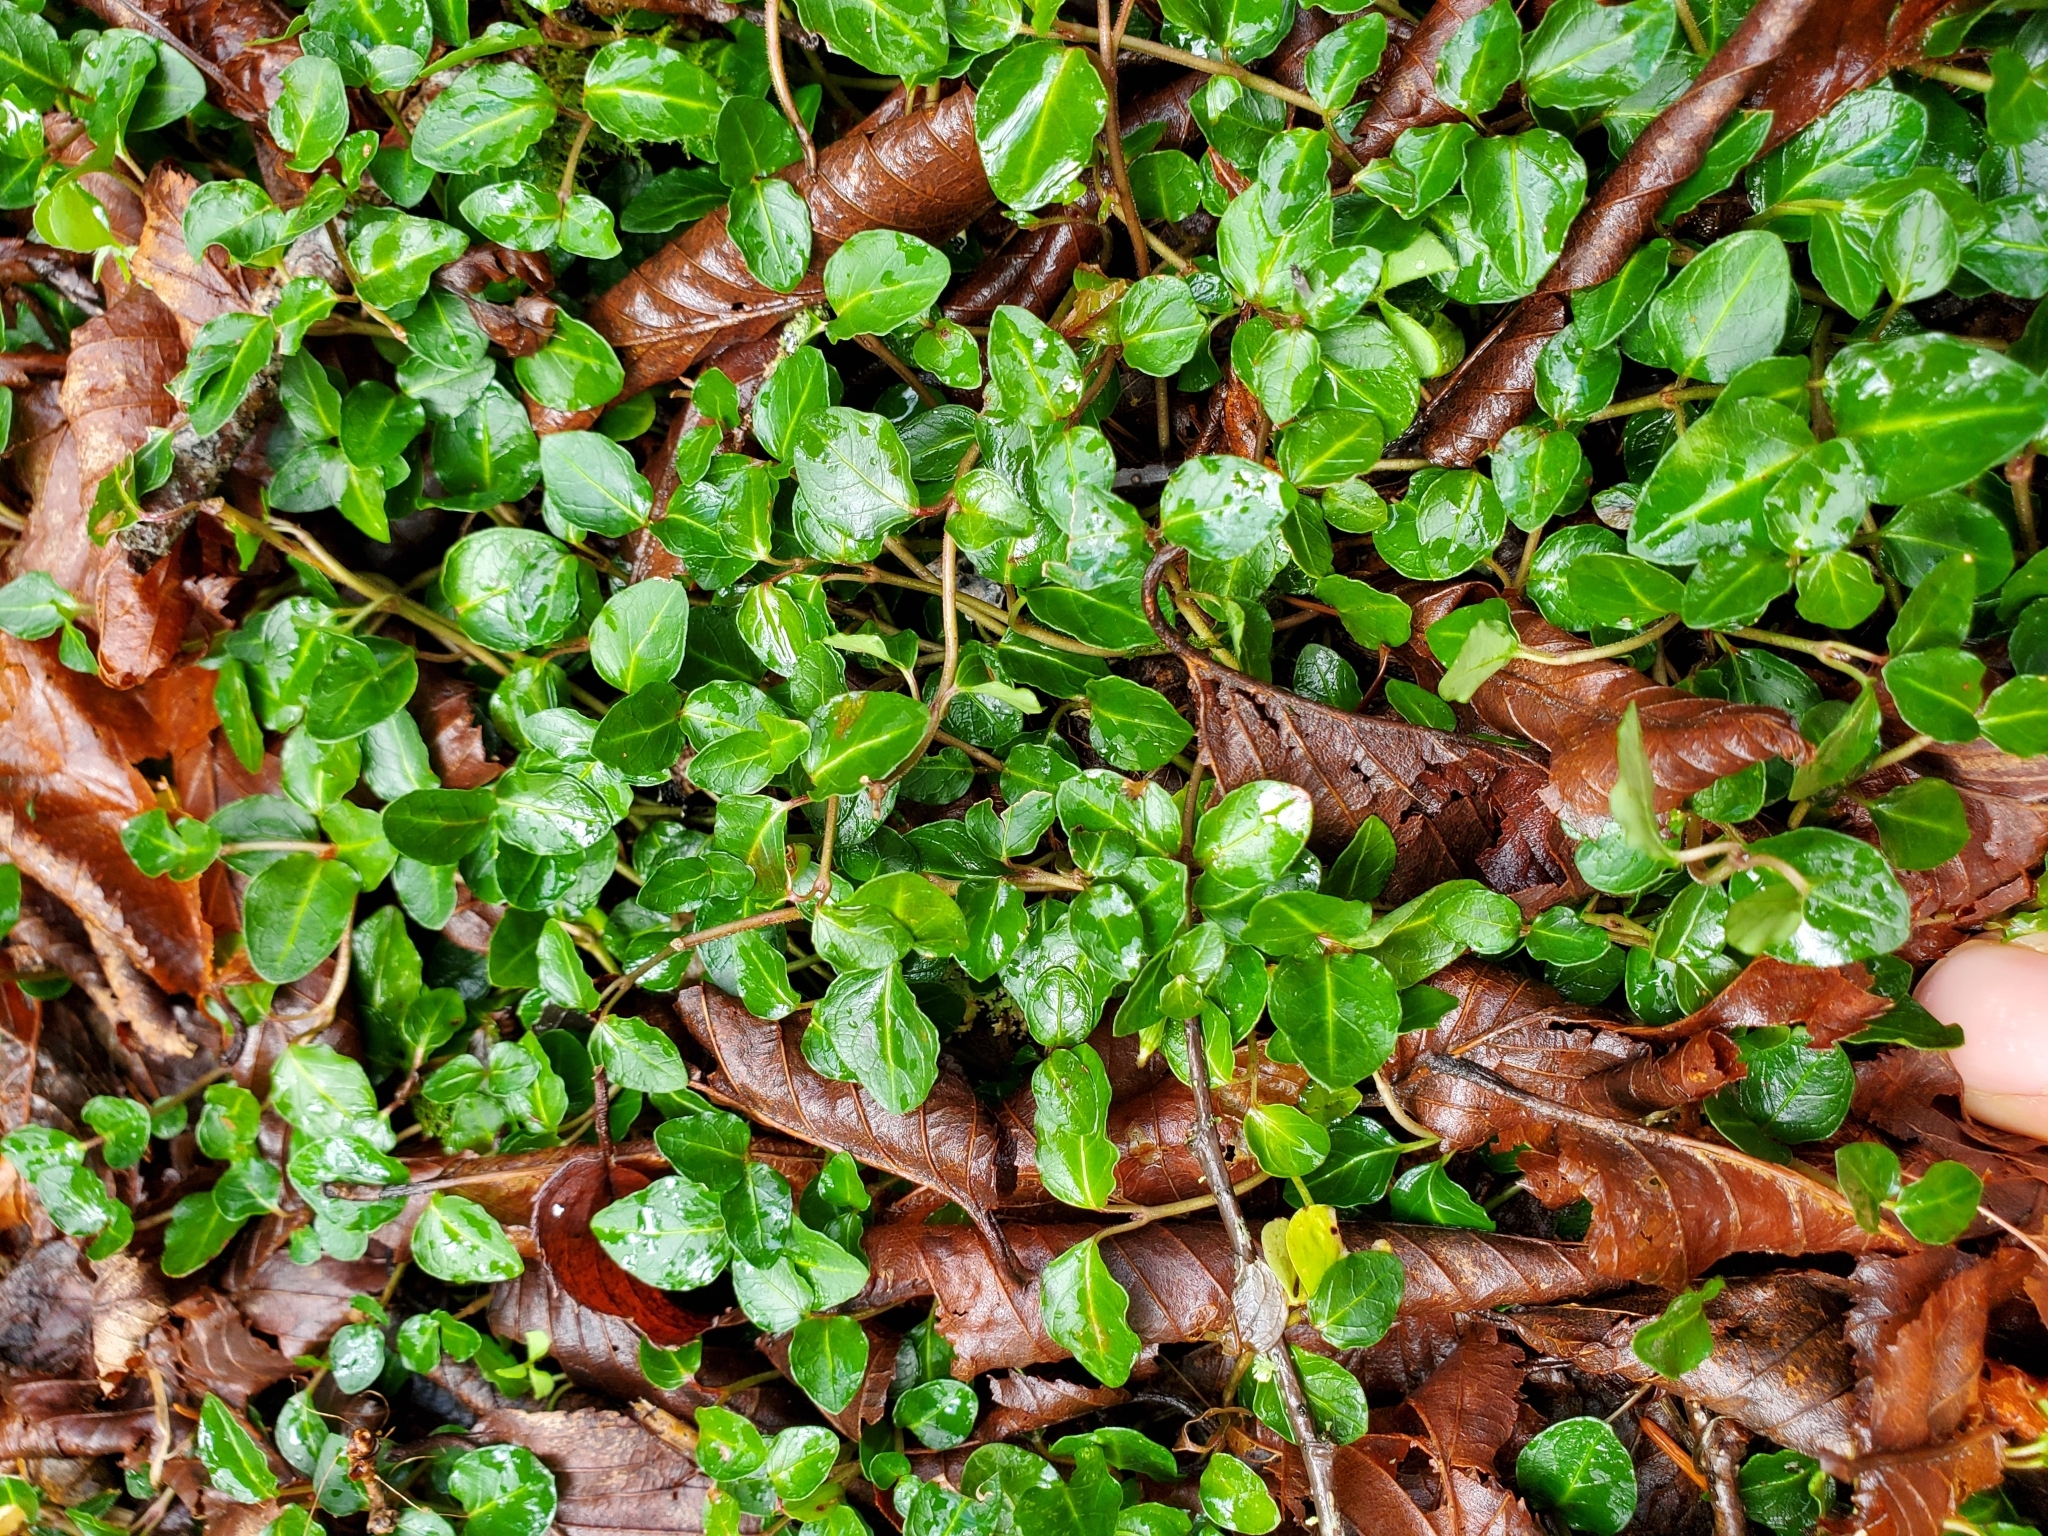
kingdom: Plantae
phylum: Tracheophyta
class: Magnoliopsida
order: Gentianales
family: Rubiaceae
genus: Mitchella
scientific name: Mitchella repens
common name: Partridge-berry
